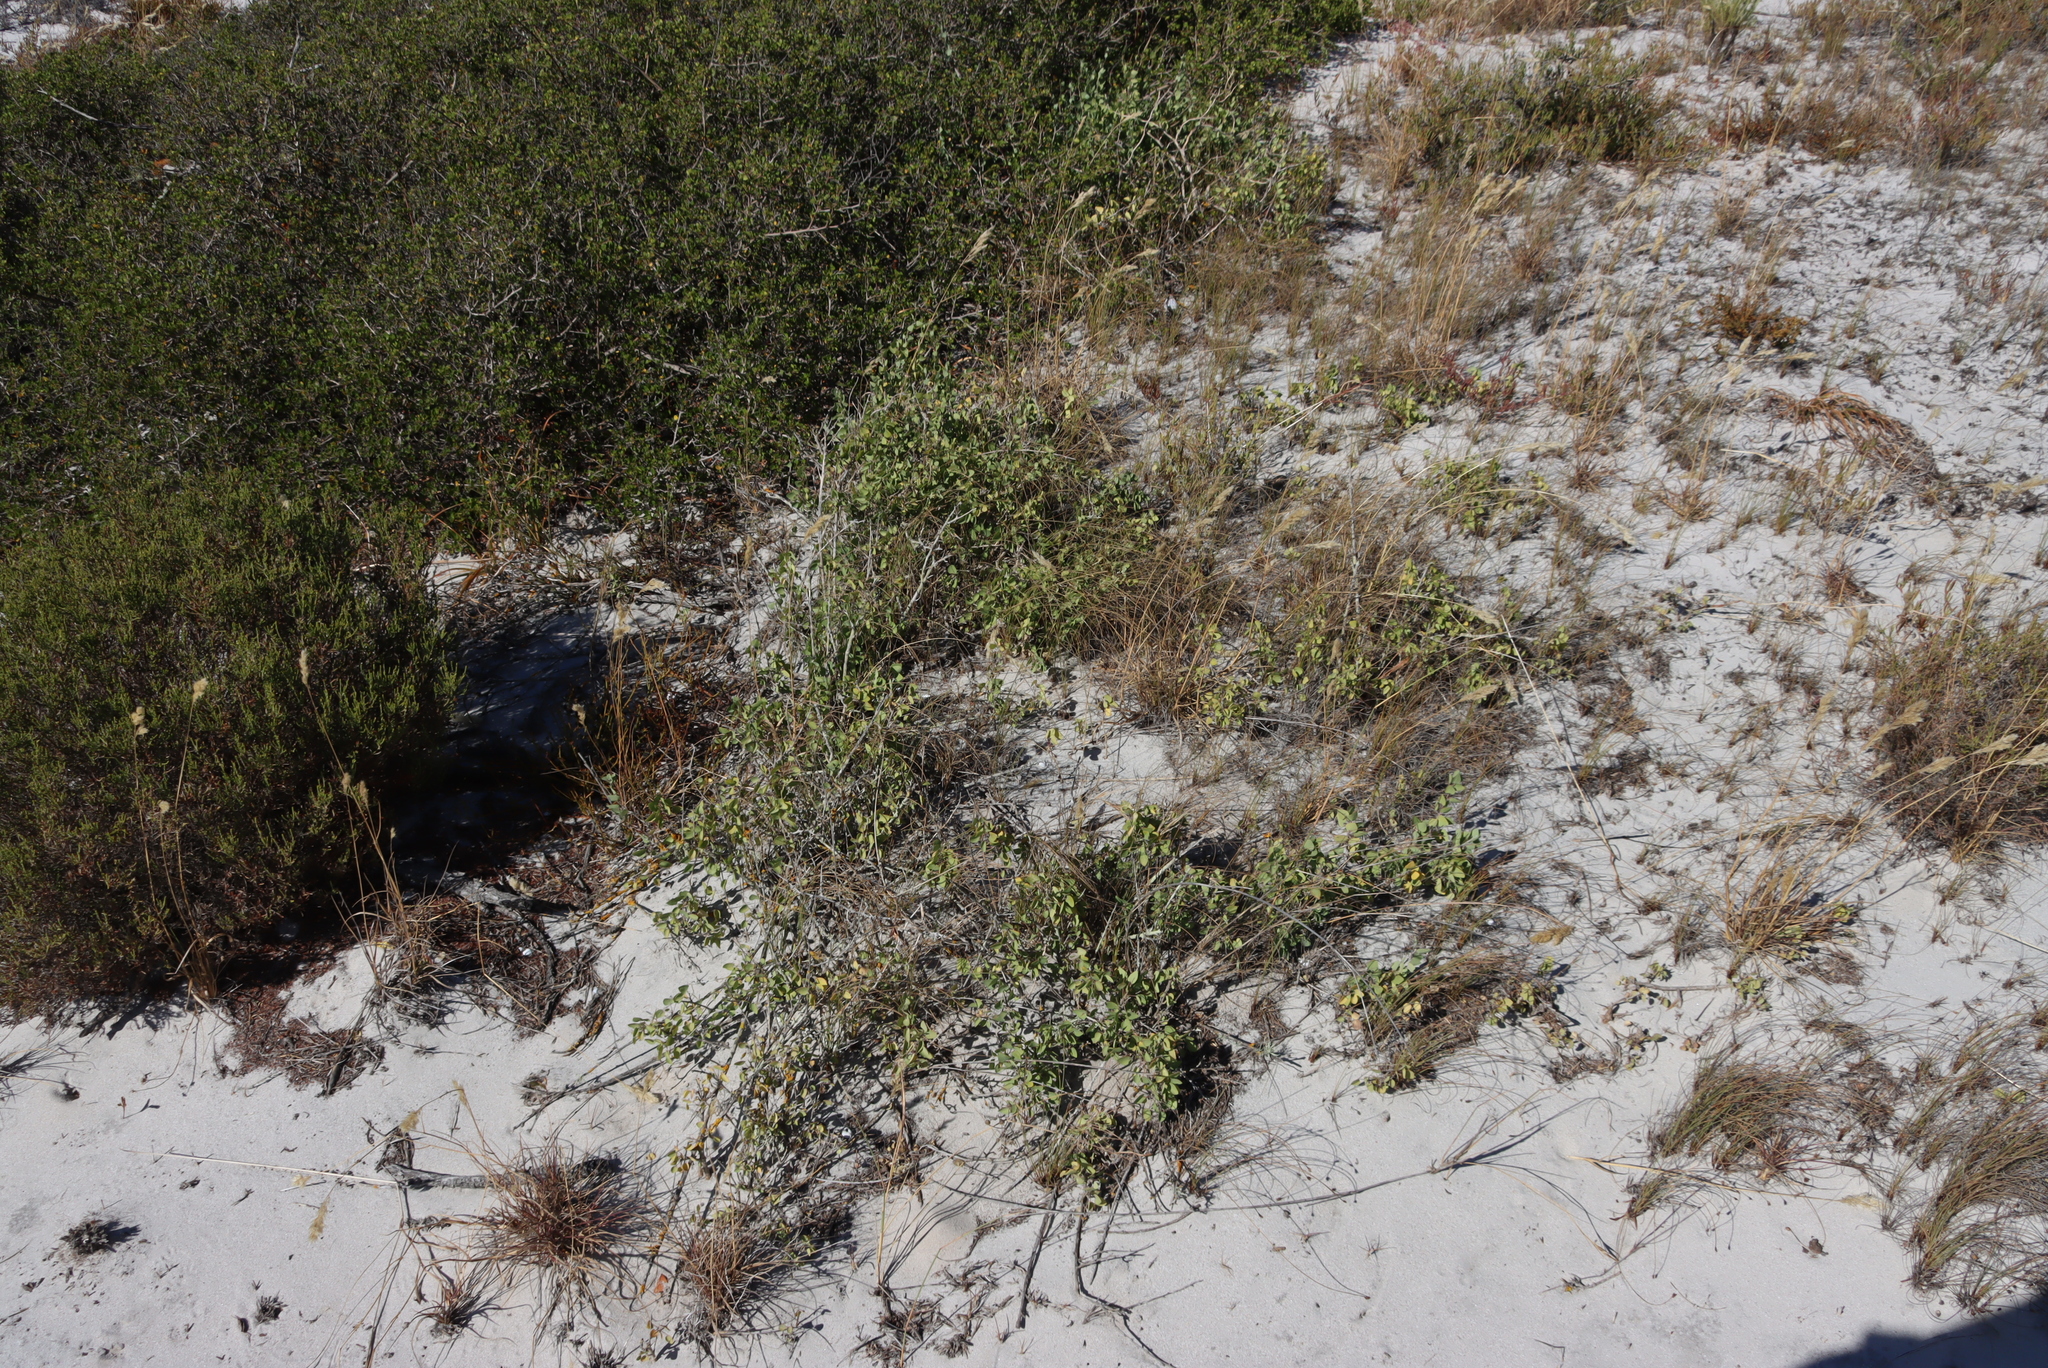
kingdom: Plantae
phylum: Tracheophyta
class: Magnoliopsida
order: Ranunculales
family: Menispermaceae
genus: Cissampelos
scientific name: Cissampelos capensis
